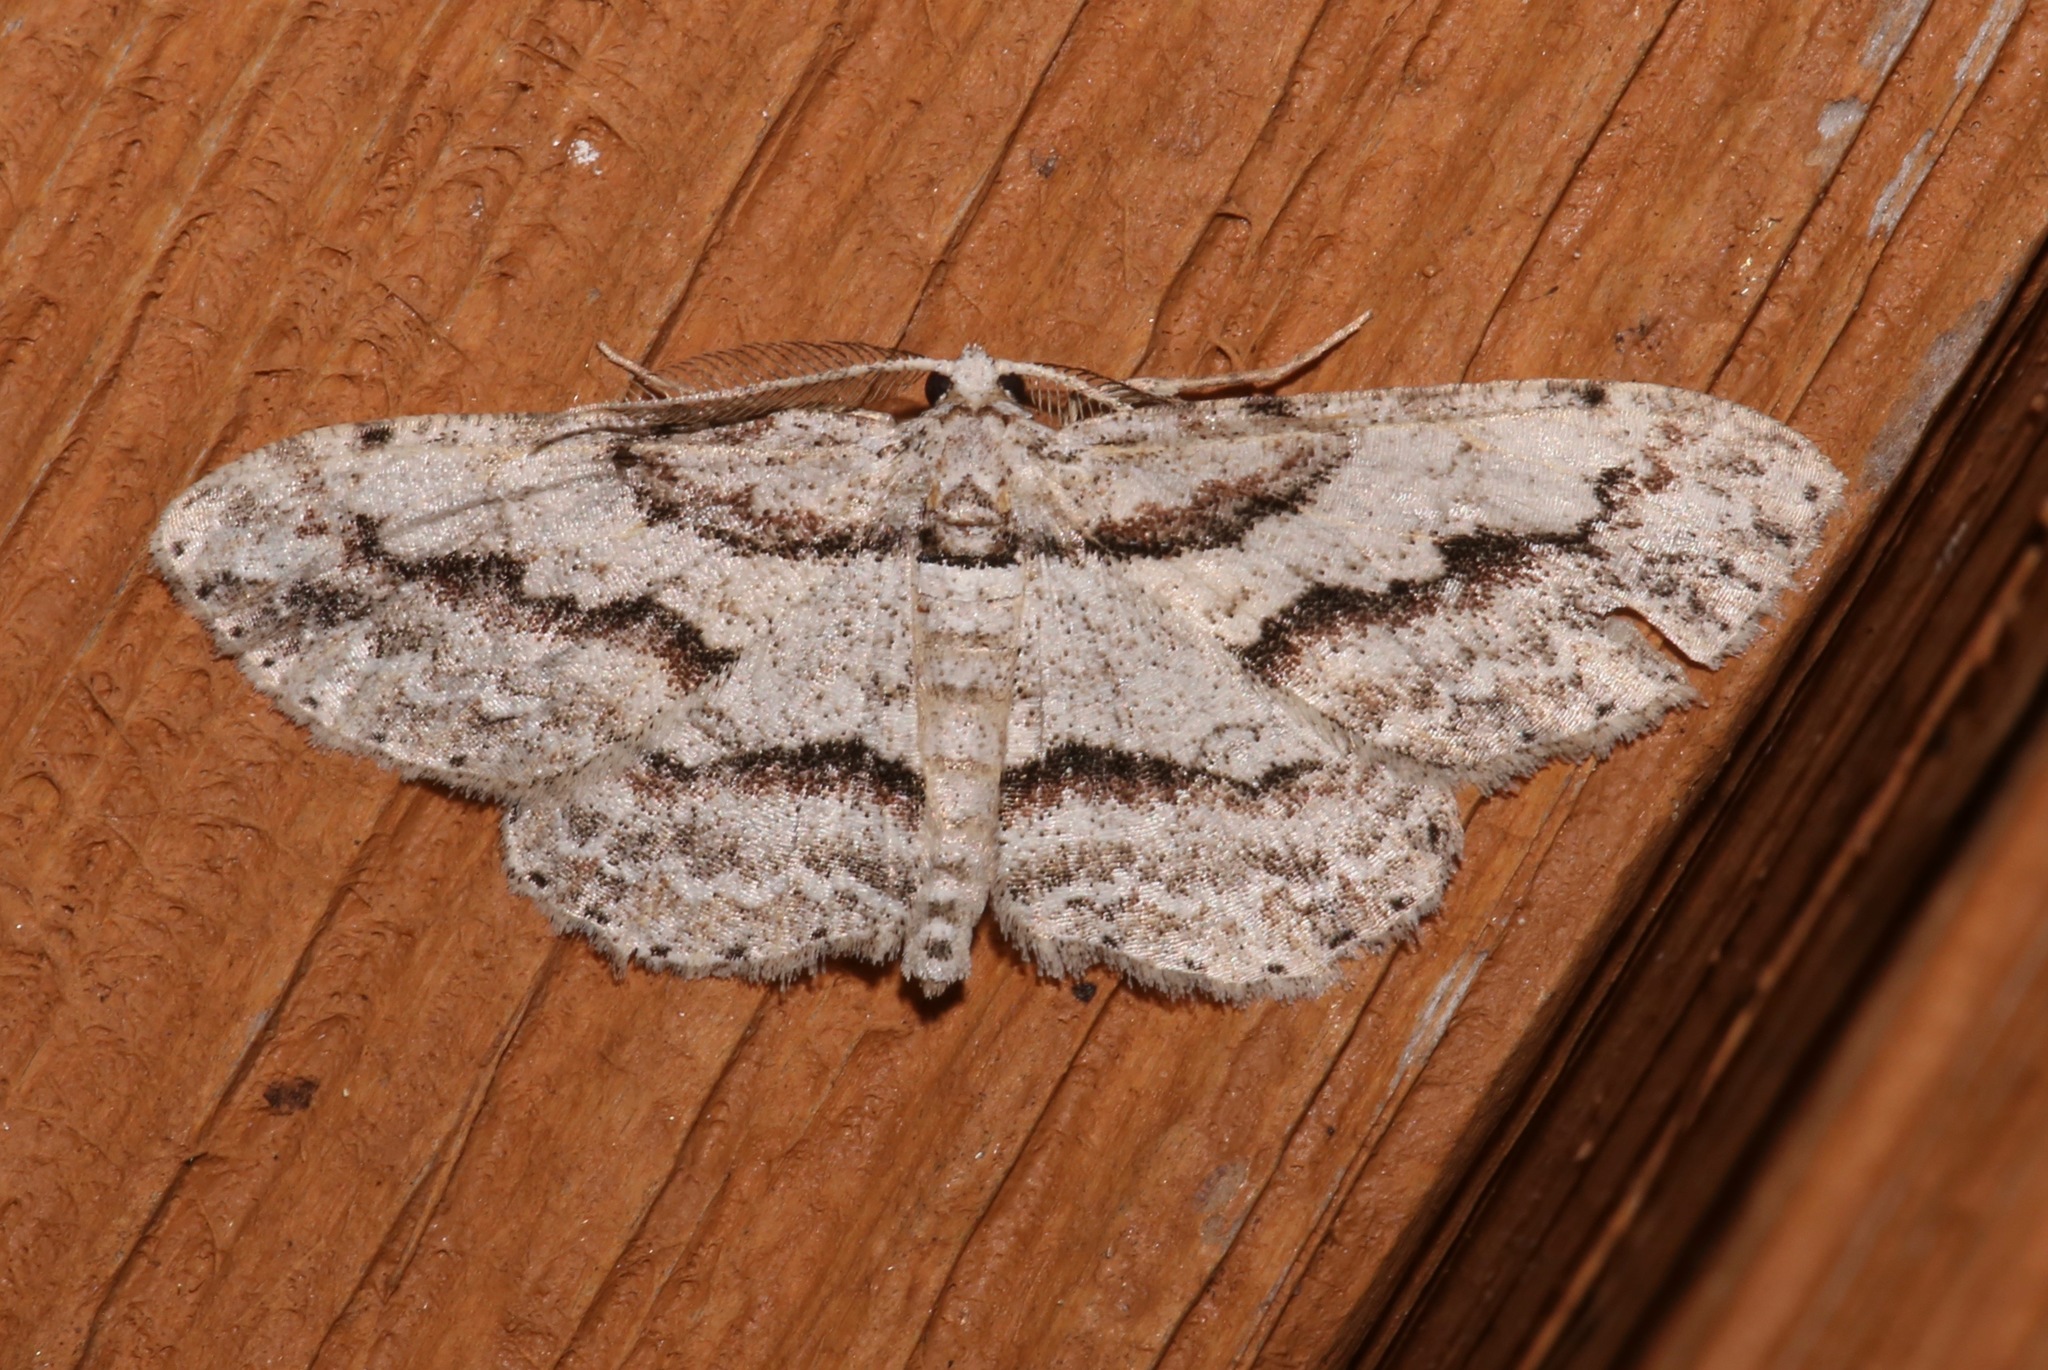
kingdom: Animalia
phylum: Arthropoda
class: Insecta
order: Lepidoptera
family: Geometridae
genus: Iridopsis
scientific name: Iridopsis pergracilis
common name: Cypress looper
